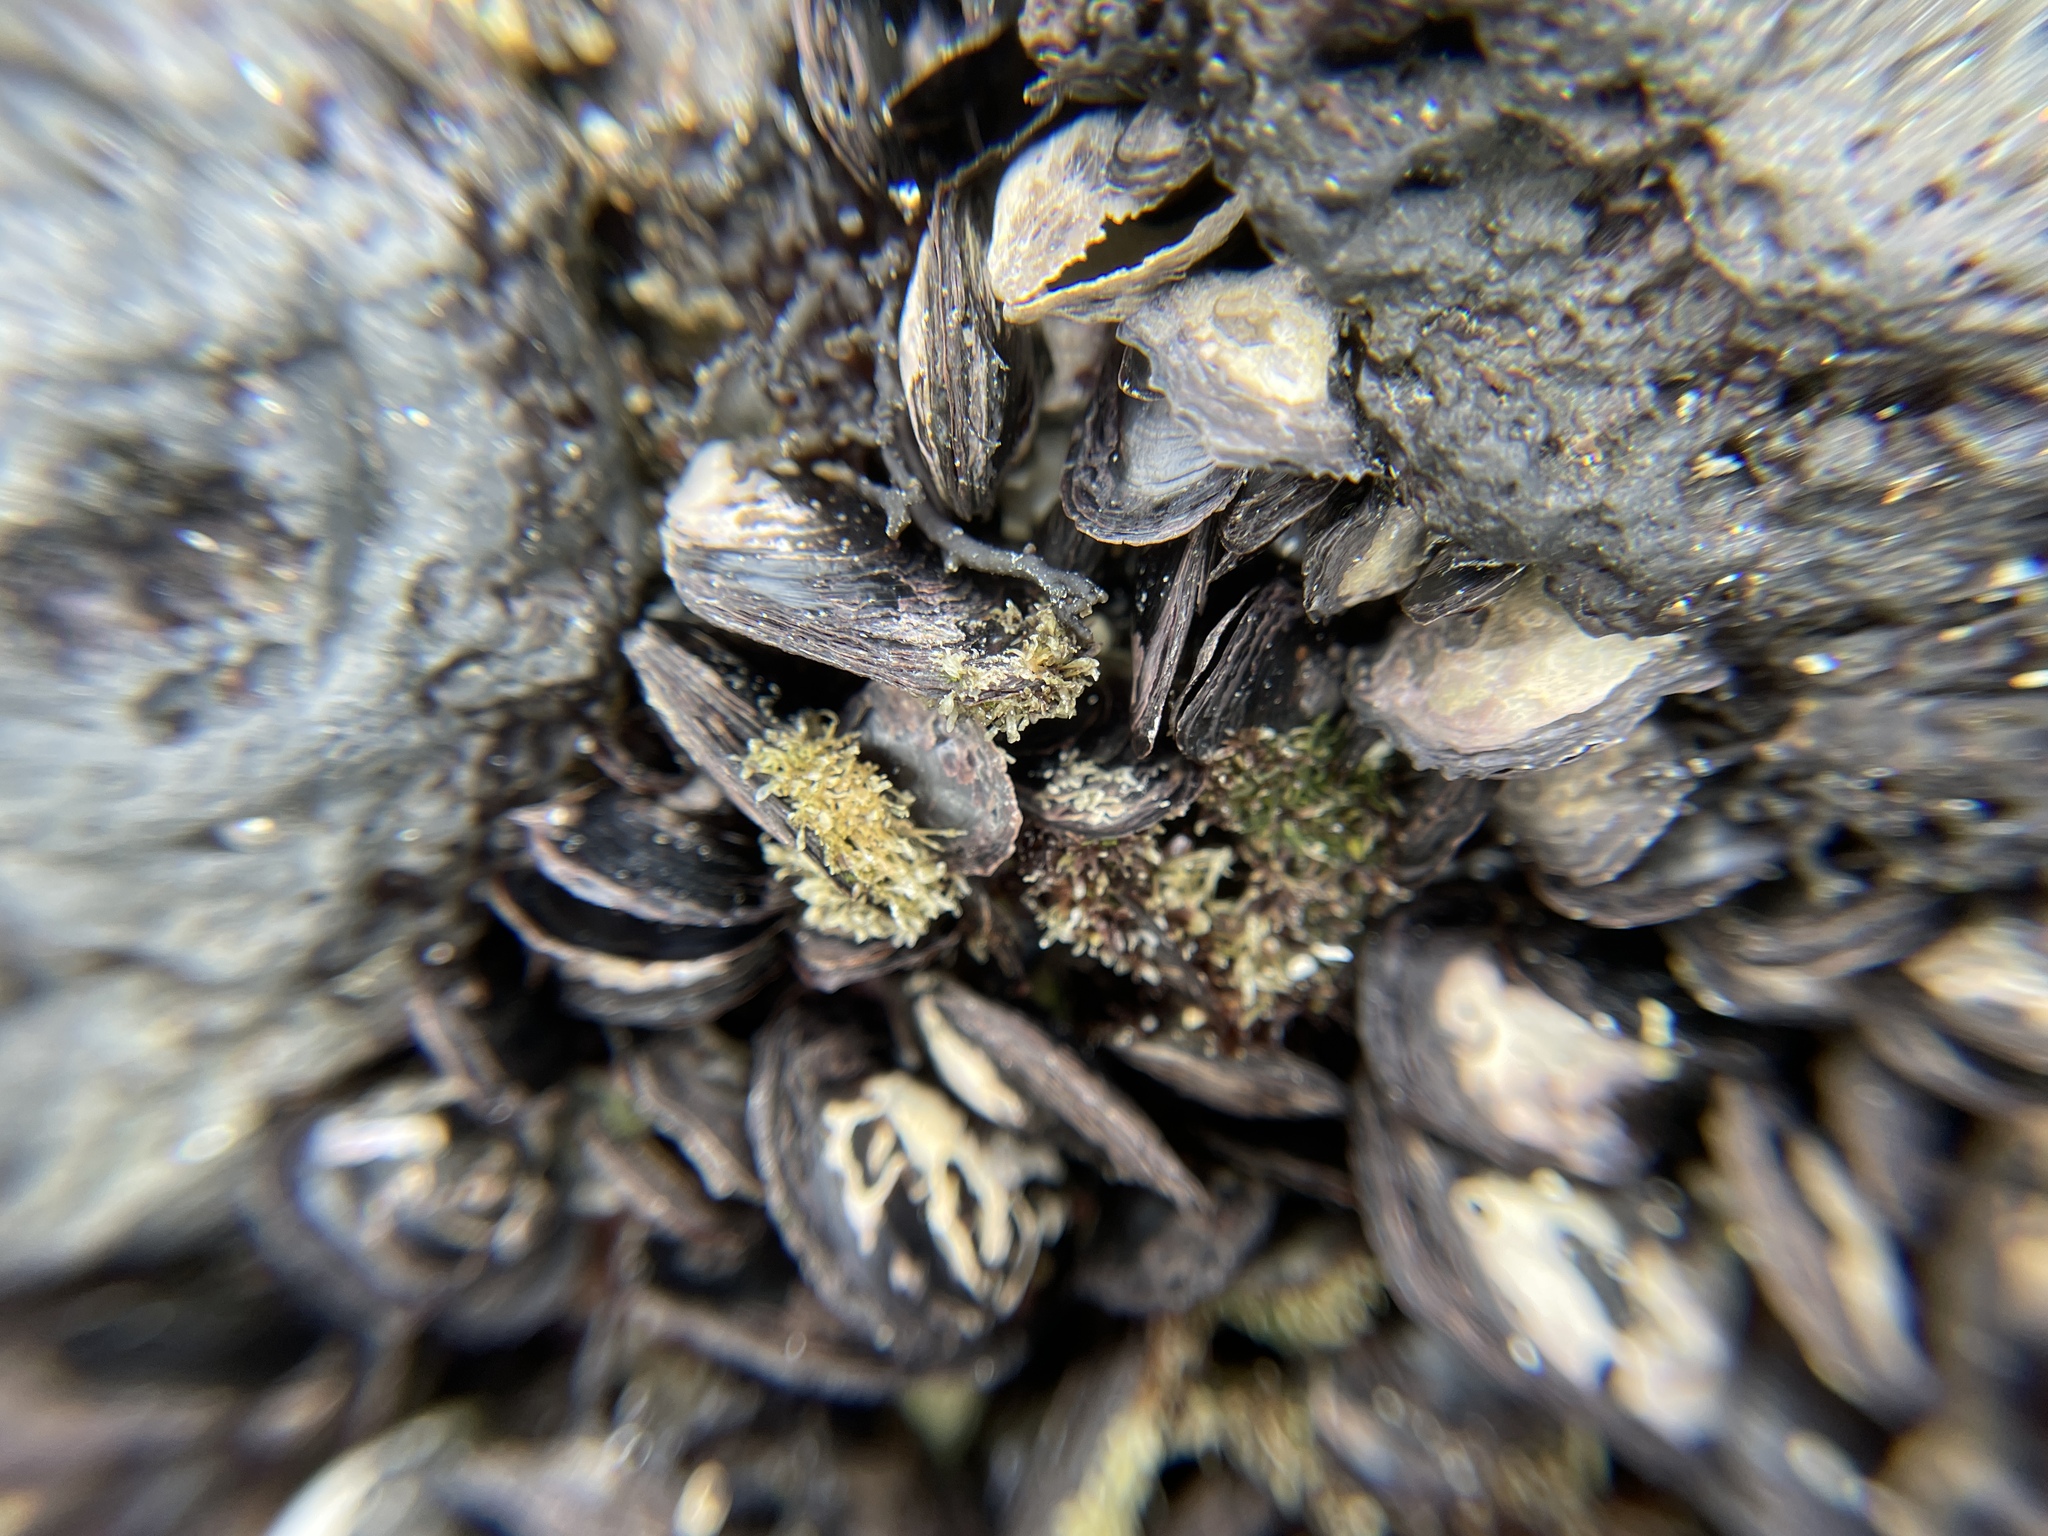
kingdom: Animalia
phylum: Mollusca
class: Bivalvia
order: Ostreida
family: Isognomonidae
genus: Isognomon
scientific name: Isognomon californicus
